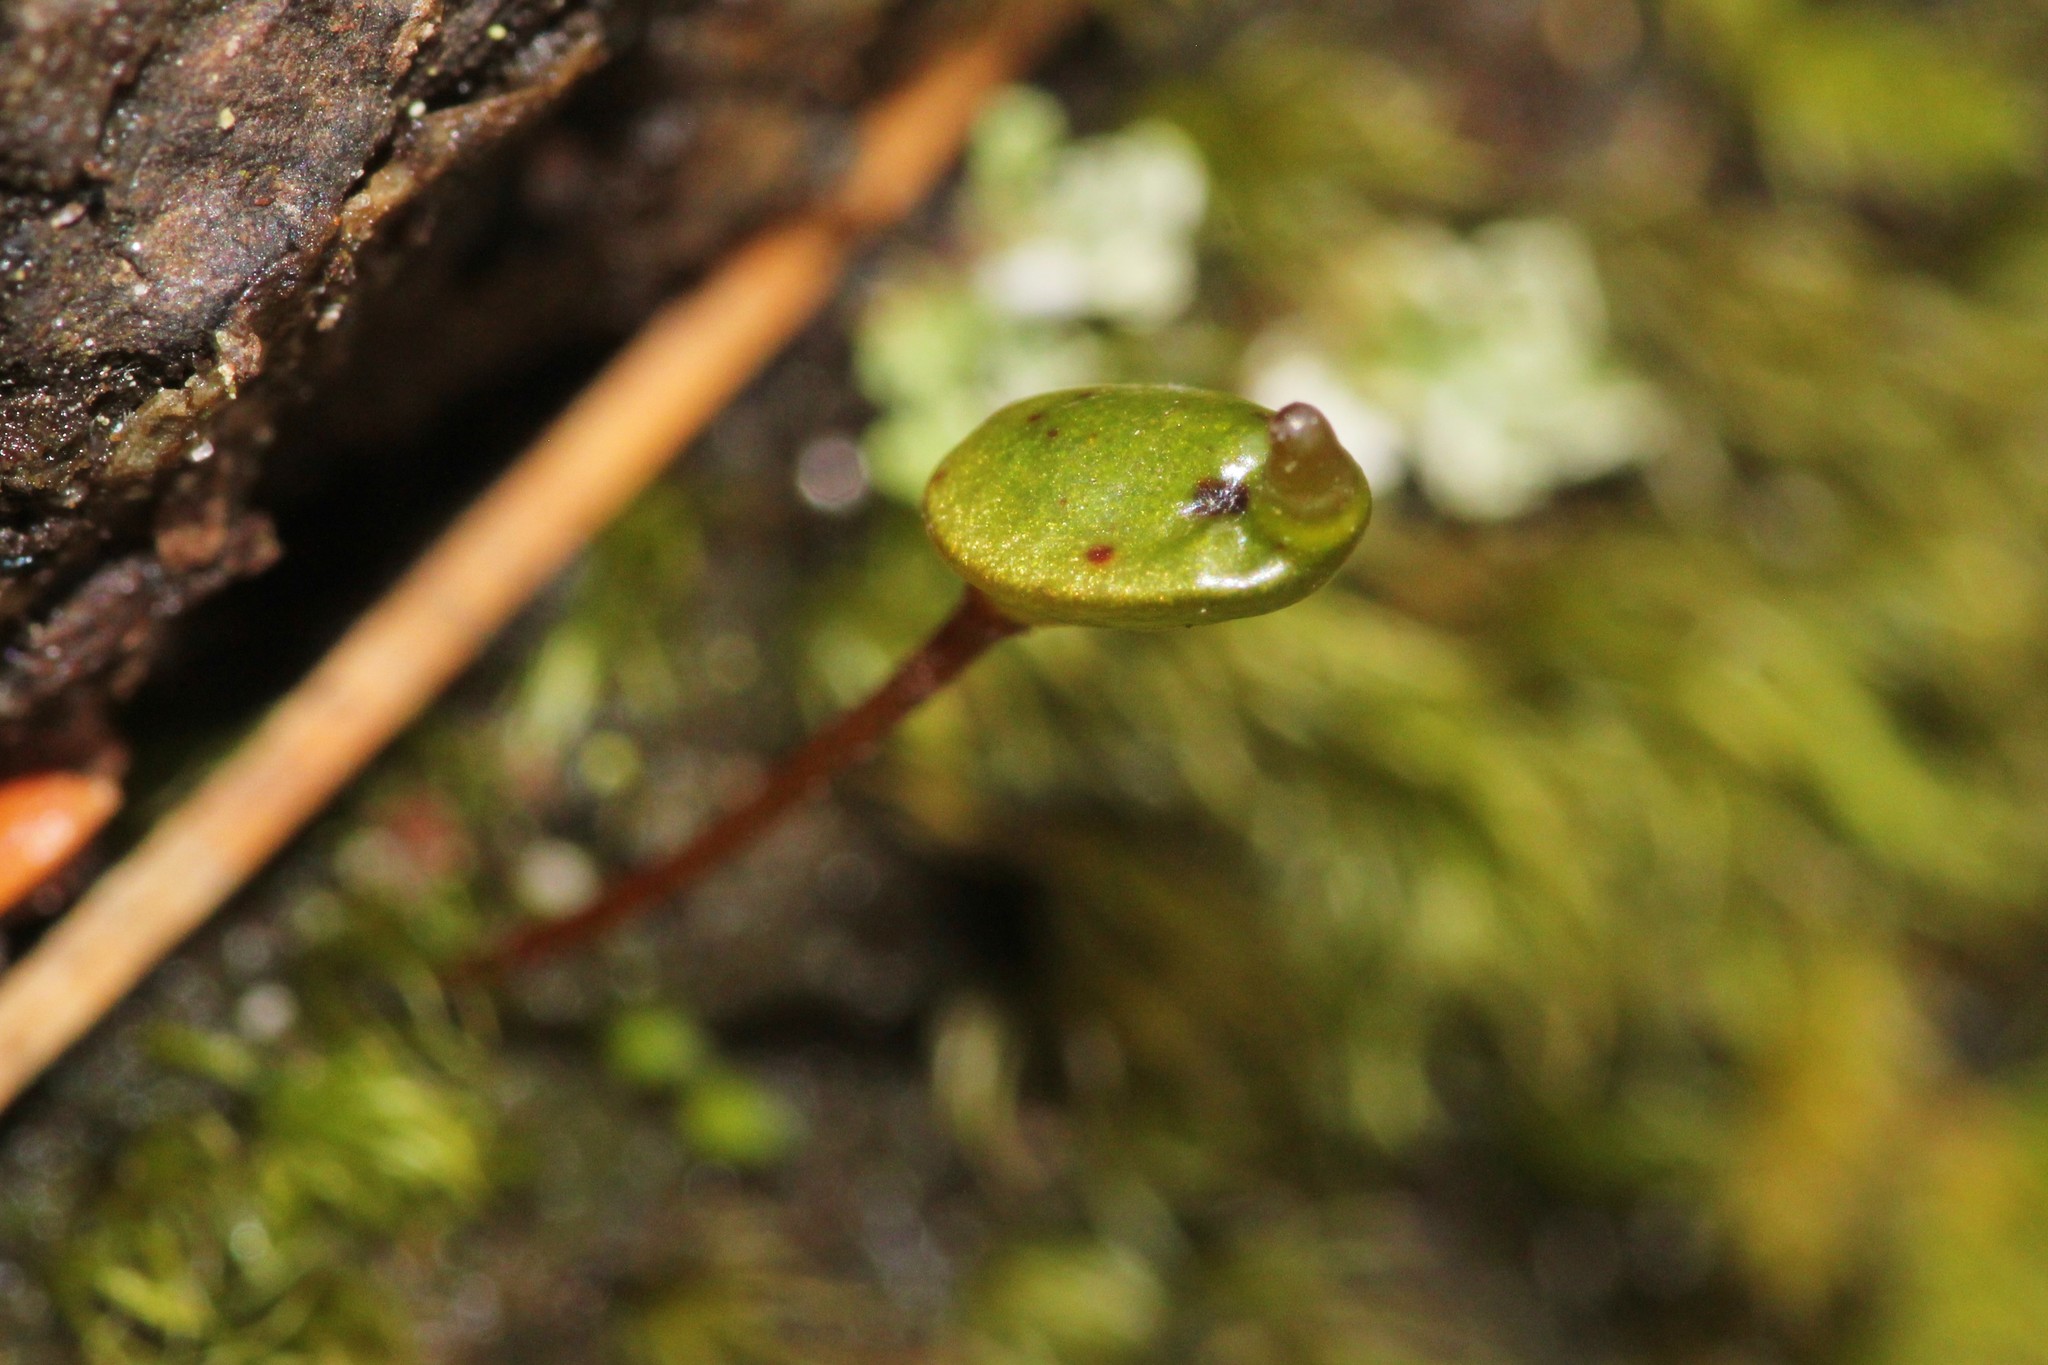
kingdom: Plantae
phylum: Bryophyta
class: Bryopsida
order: Buxbaumiales
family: Buxbaumiaceae
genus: Buxbaumia
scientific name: Buxbaumia aphylla
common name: Brown shield-moss
